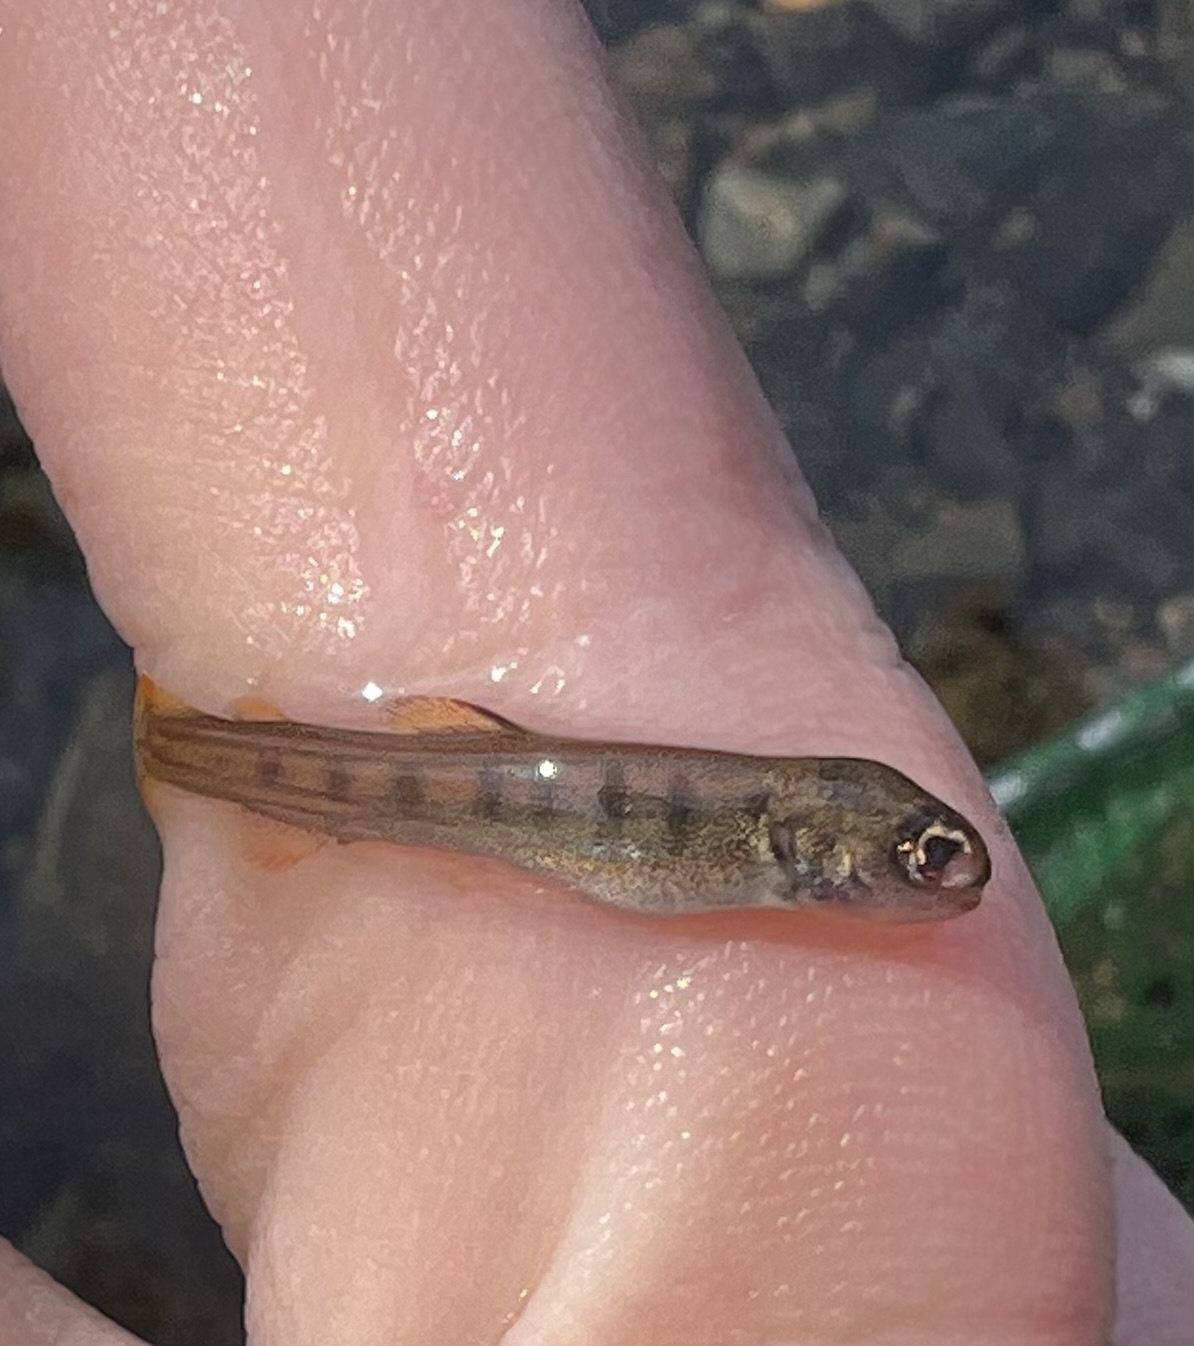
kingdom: Animalia
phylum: Chordata
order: Salmoniformes
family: Salmonidae
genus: Oncorhynchus
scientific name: Oncorhynchus kisutch
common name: Coho salmon
